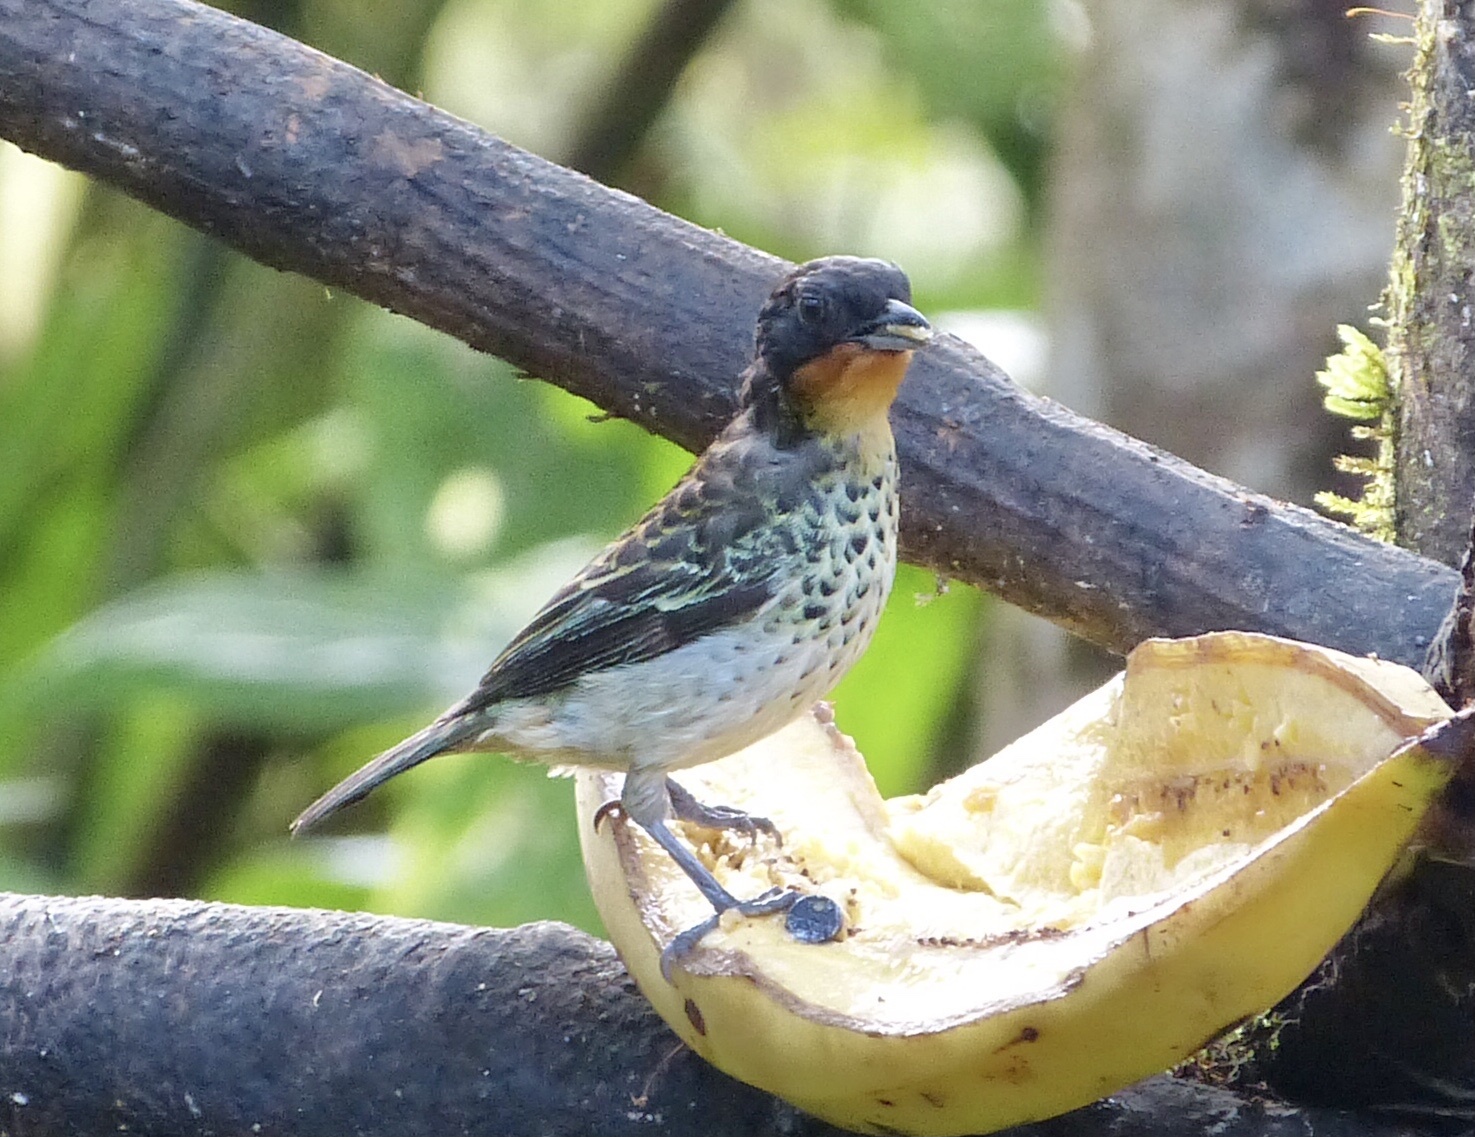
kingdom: Animalia
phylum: Chordata
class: Aves
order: Passeriformes
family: Thraupidae
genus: Ixothraupis
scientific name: Ixothraupis rufigula
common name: Rufous-throated tanager
